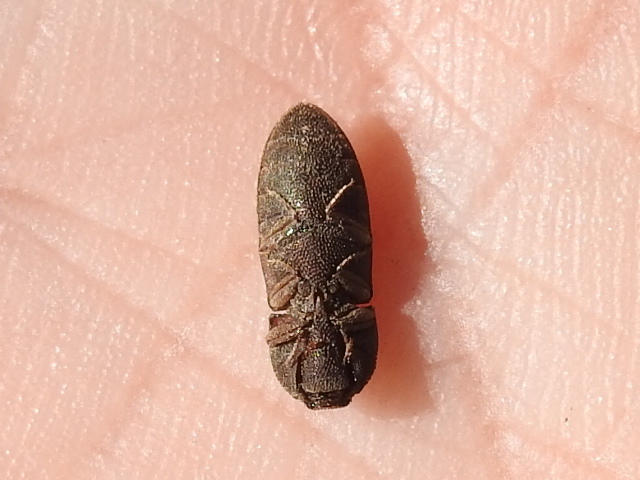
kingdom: Animalia
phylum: Arthropoda
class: Insecta
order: Coleoptera
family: Elateridae
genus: Agrypnus
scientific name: Agrypnus rectangularis
